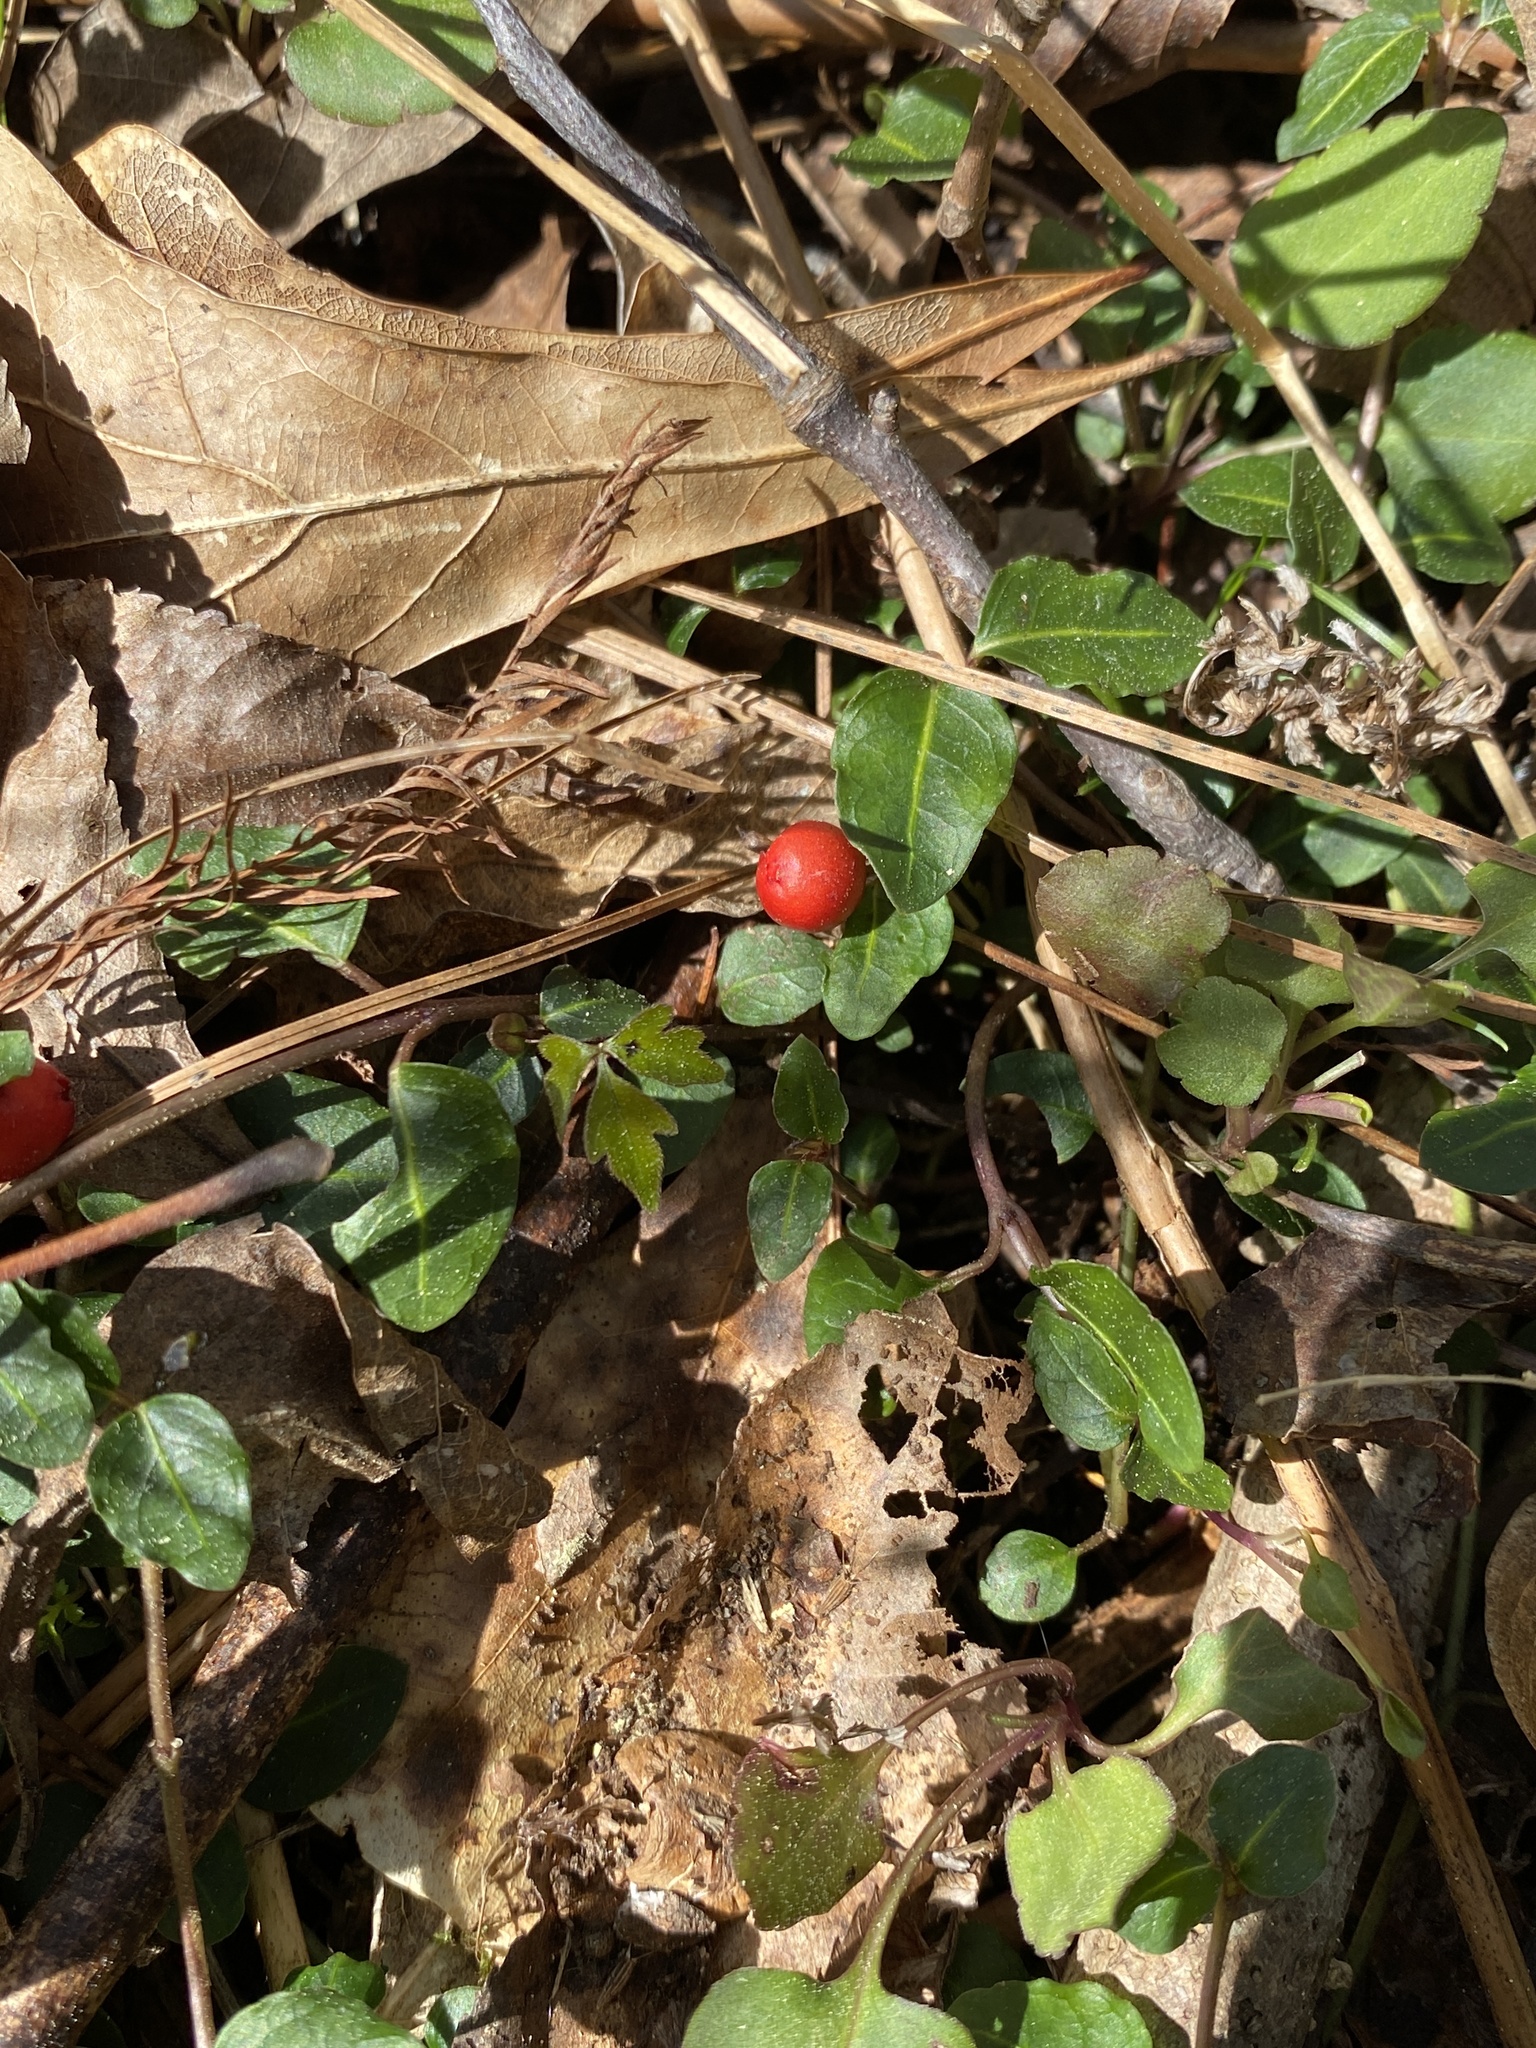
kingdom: Plantae
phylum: Tracheophyta
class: Magnoliopsida
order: Gentianales
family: Rubiaceae
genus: Mitchella
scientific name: Mitchella repens
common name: Partridge-berry
